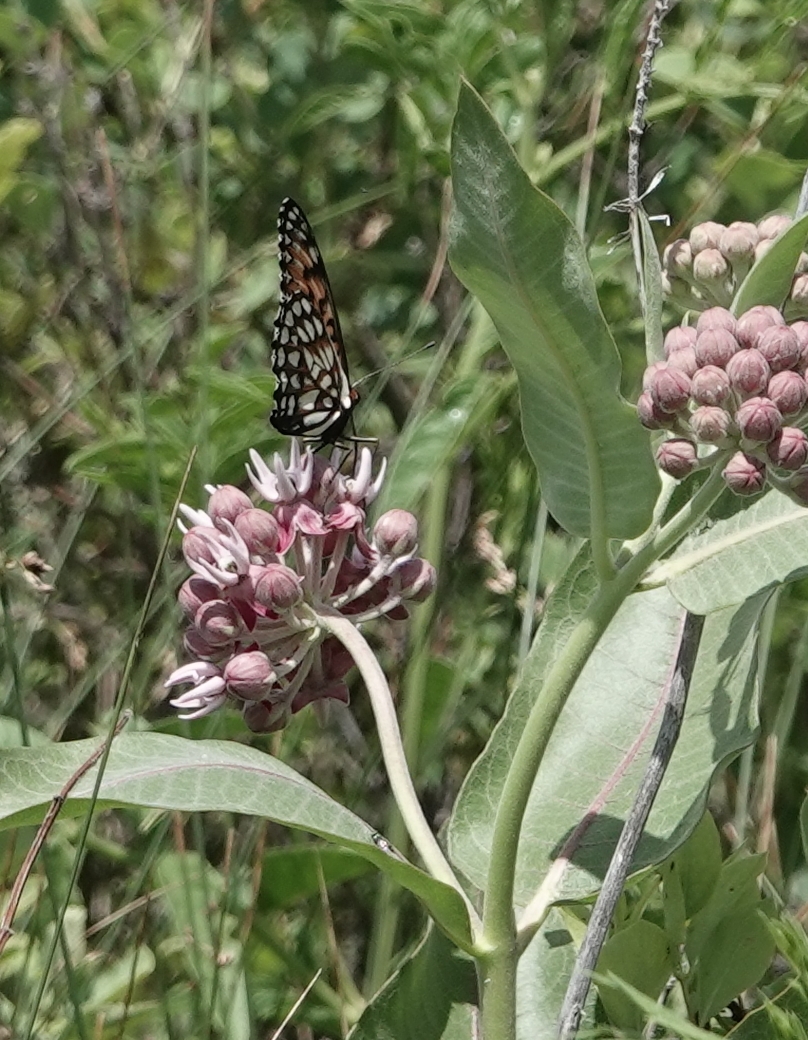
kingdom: Animalia
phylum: Arthropoda
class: Insecta
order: Lepidoptera
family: Nymphalidae
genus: Speyeria
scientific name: Speyeria idalia
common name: Regal fritillary
